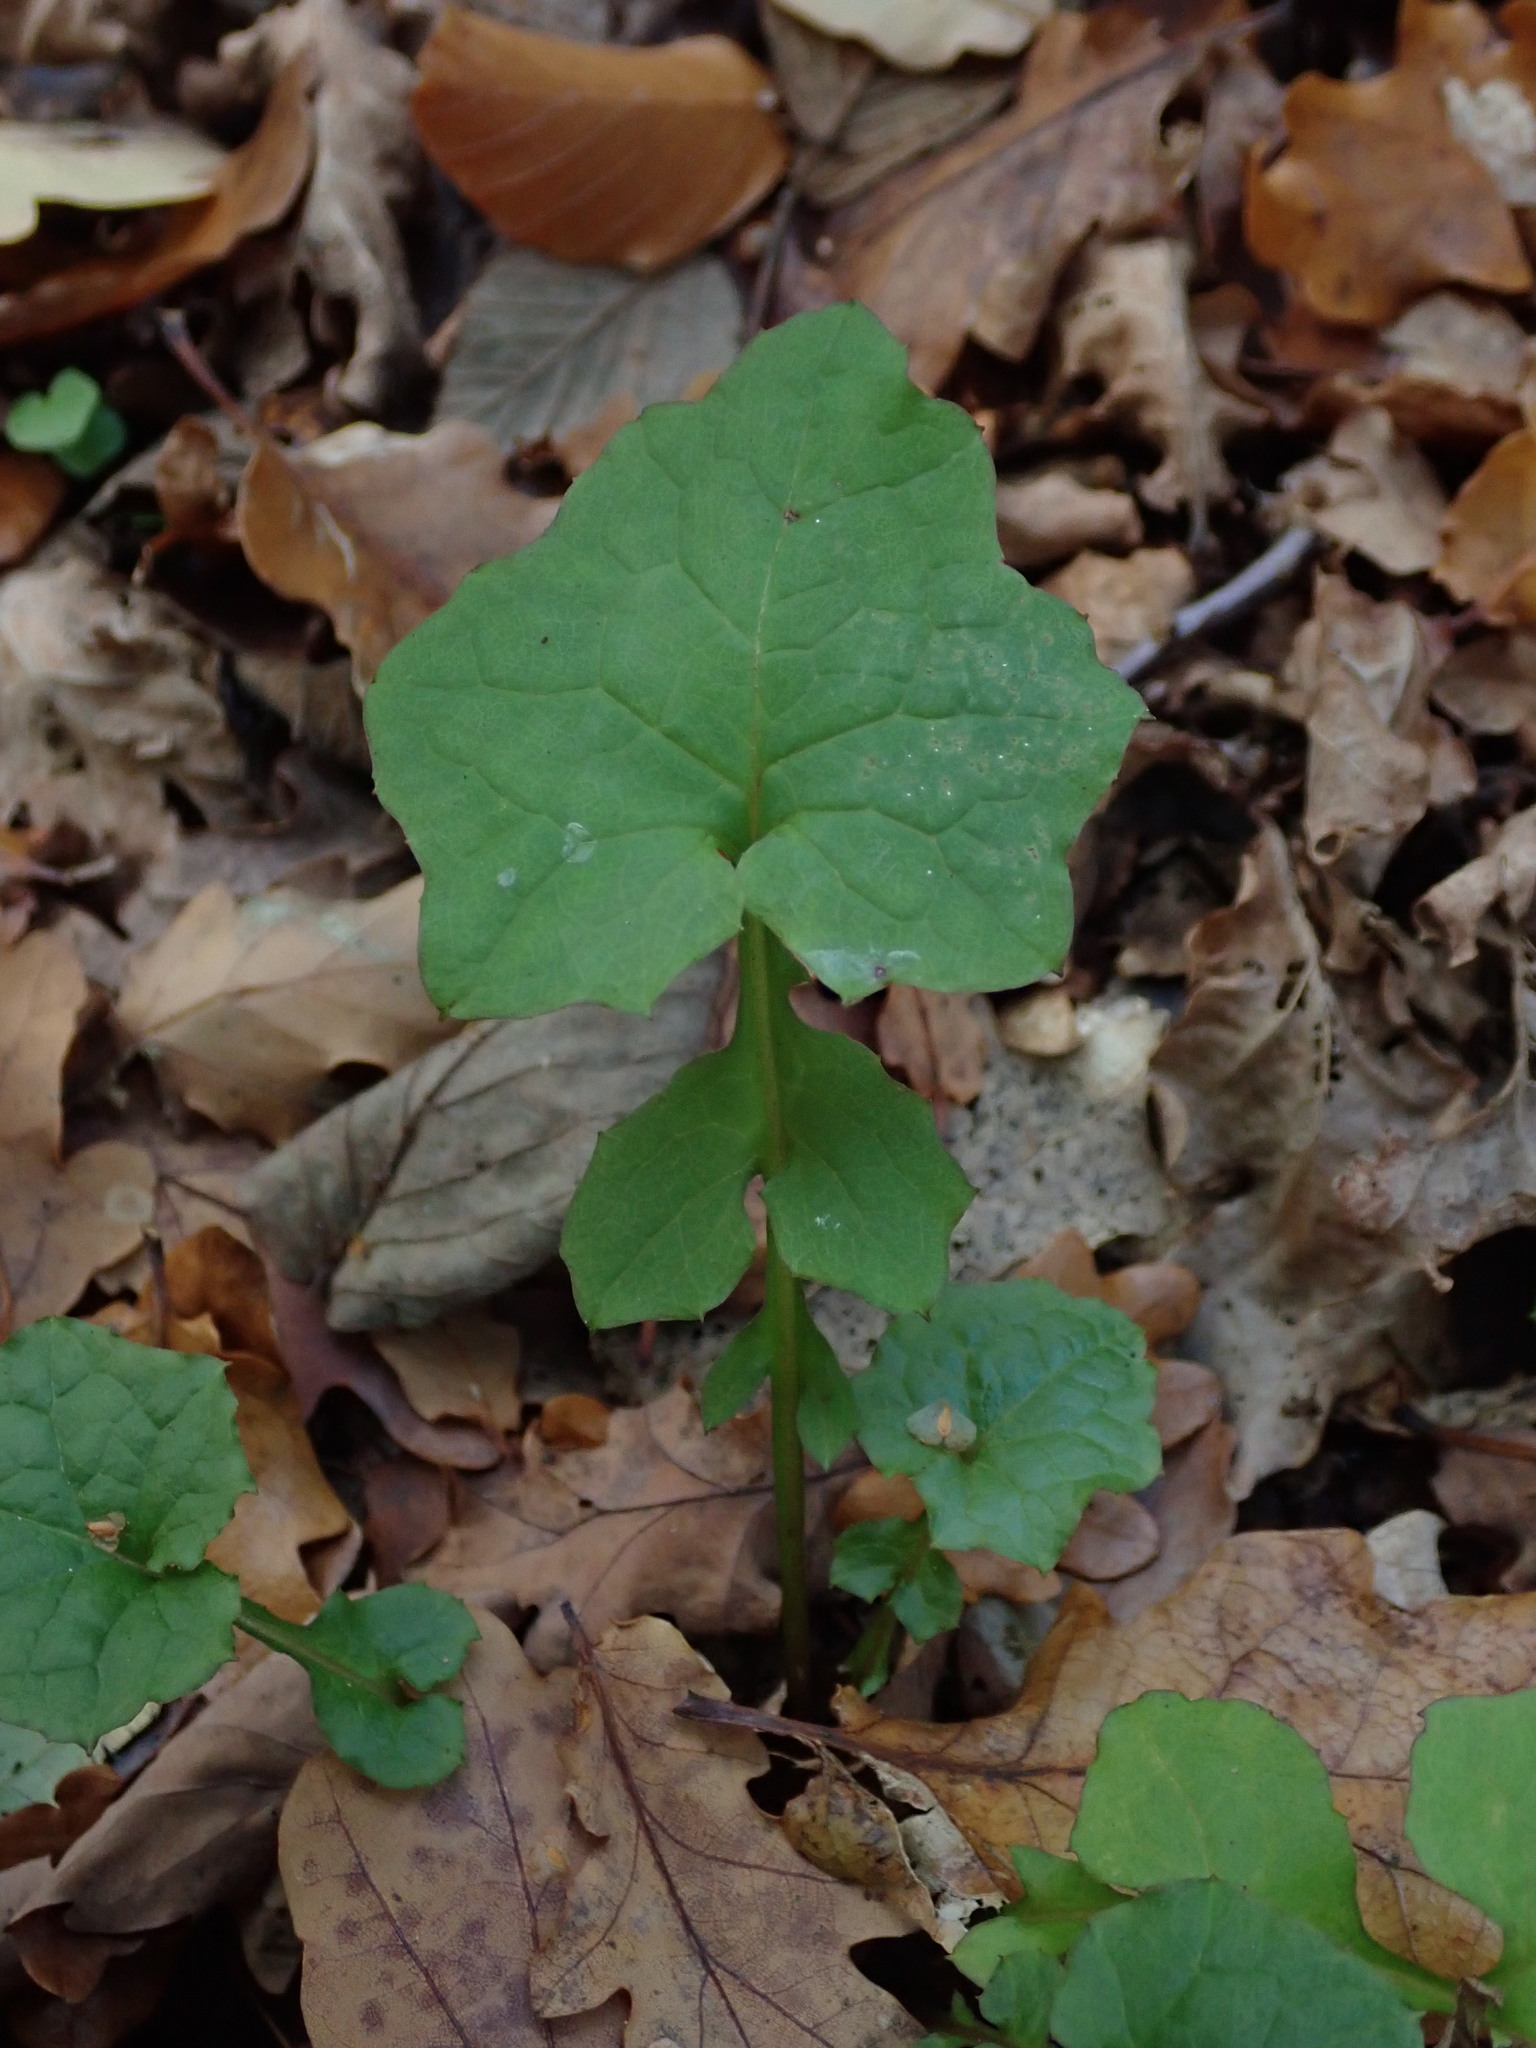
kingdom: Plantae
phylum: Tracheophyta
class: Magnoliopsida
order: Asterales
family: Asteraceae
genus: Mycelis
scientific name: Mycelis muralis
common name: Wall lettuce
